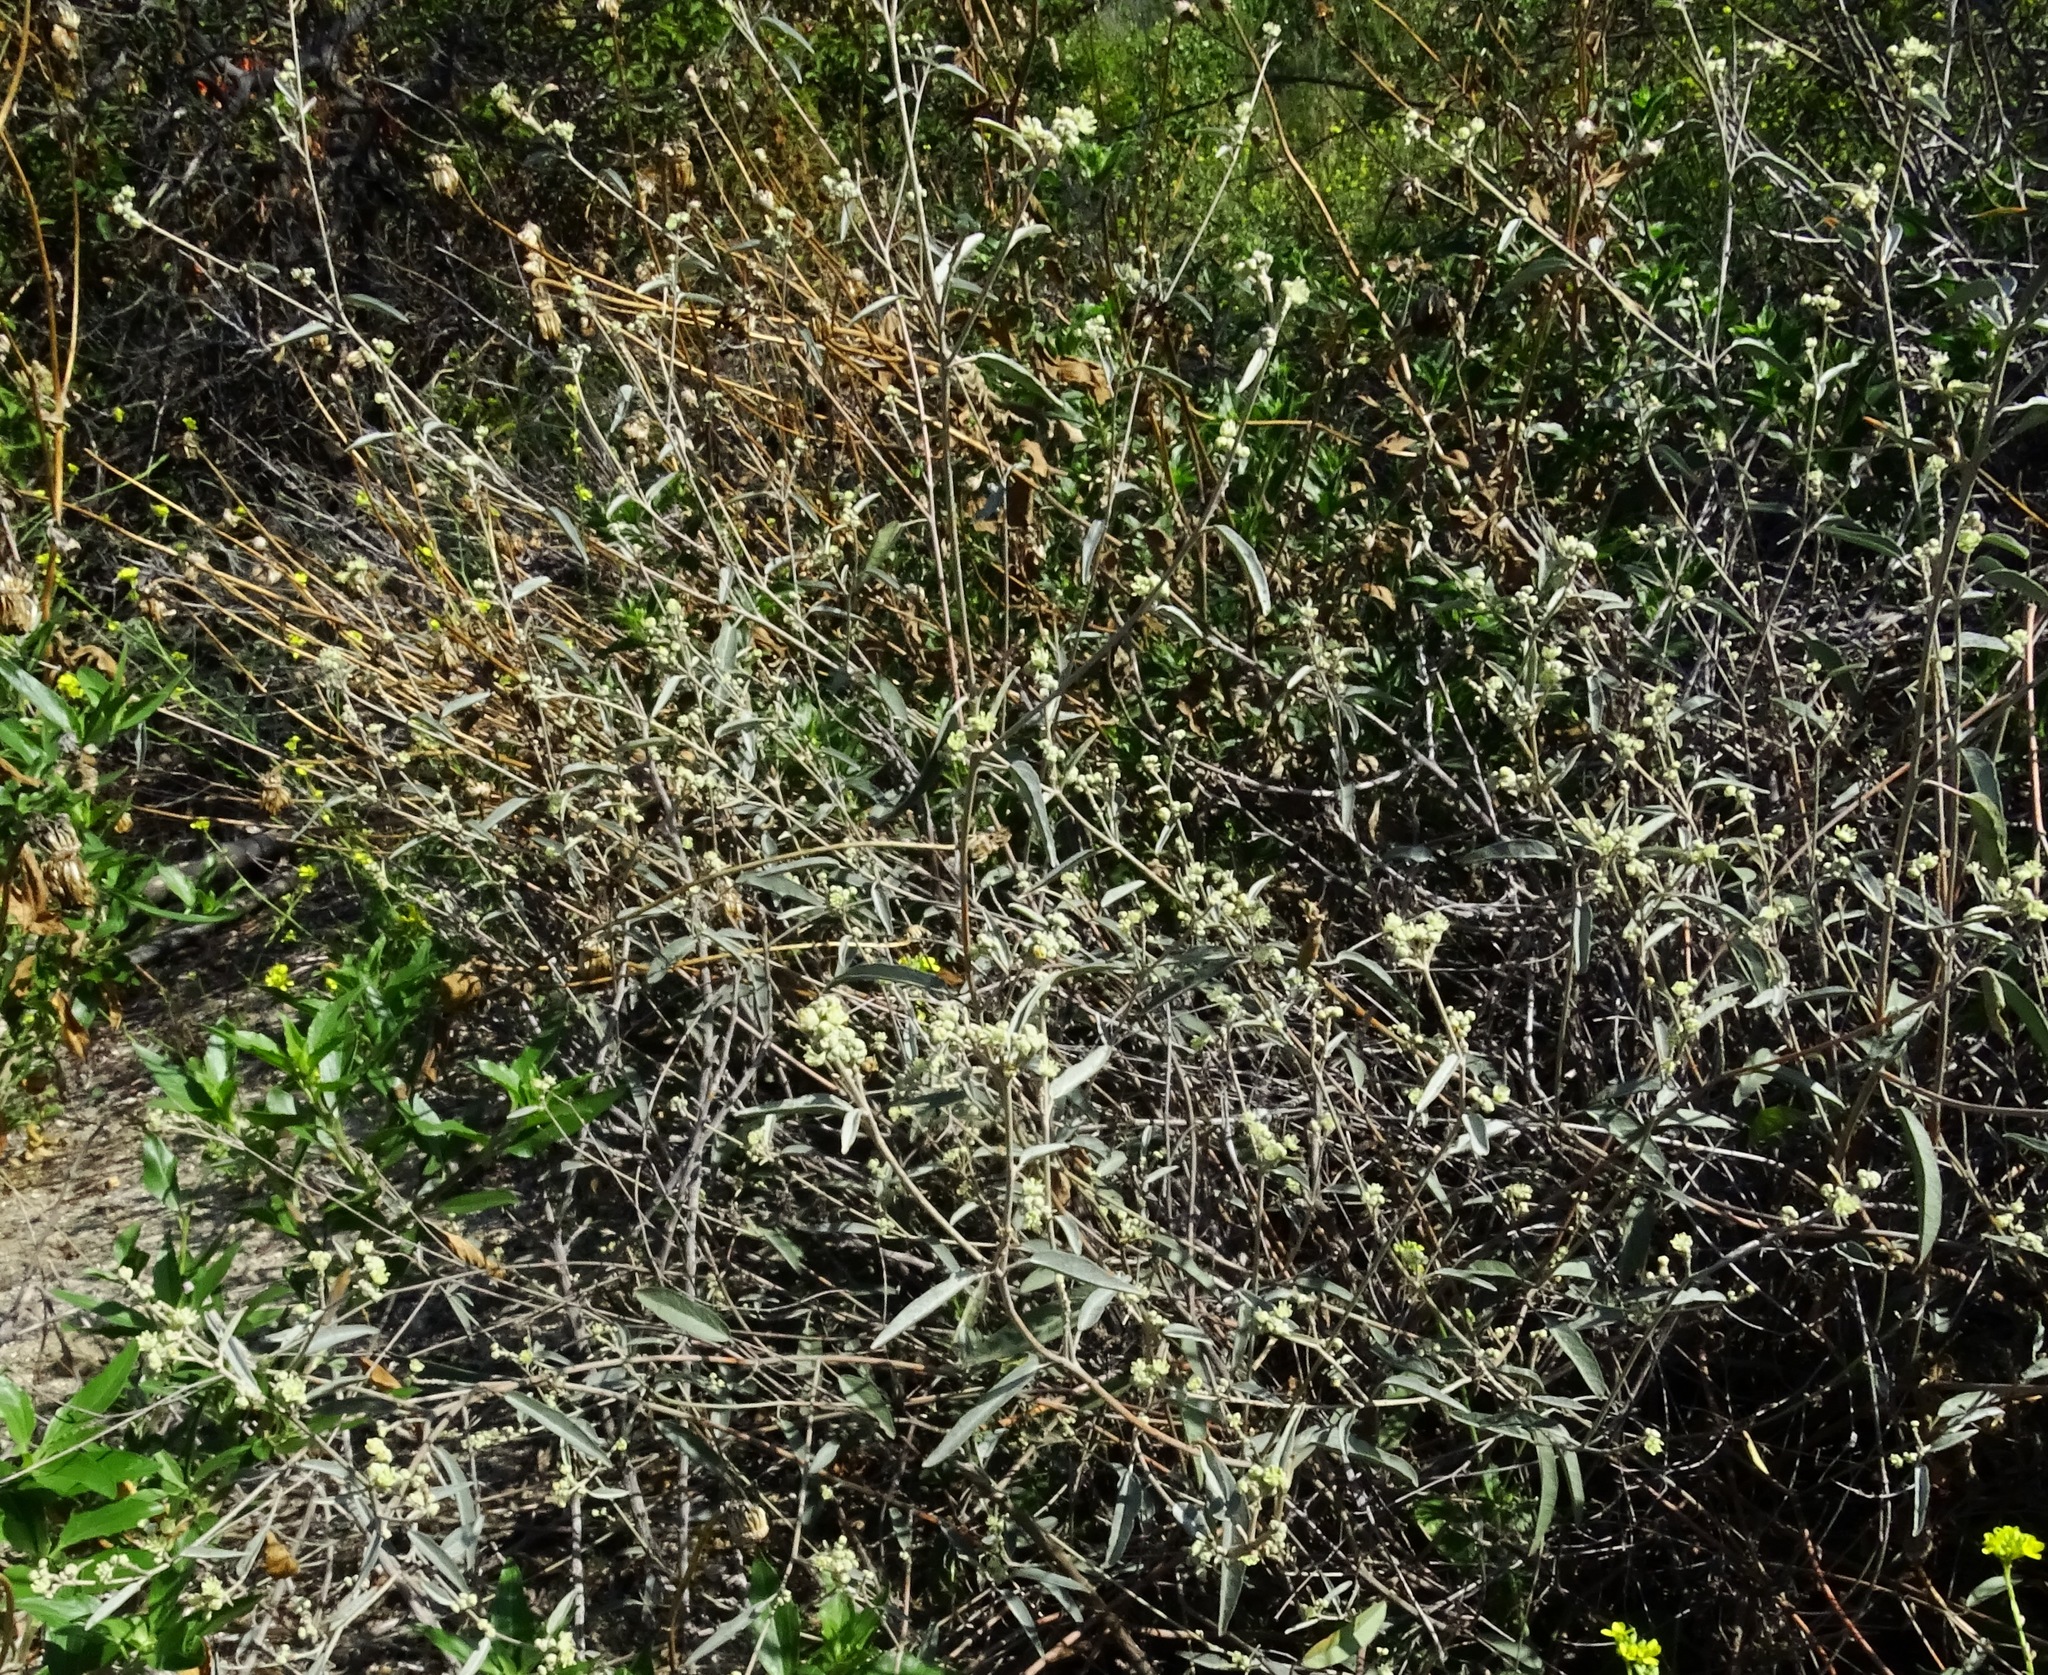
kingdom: Plantae
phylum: Tracheophyta
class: Magnoliopsida
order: Malpighiales
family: Euphorbiaceae
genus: Croton
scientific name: Croton californicus
